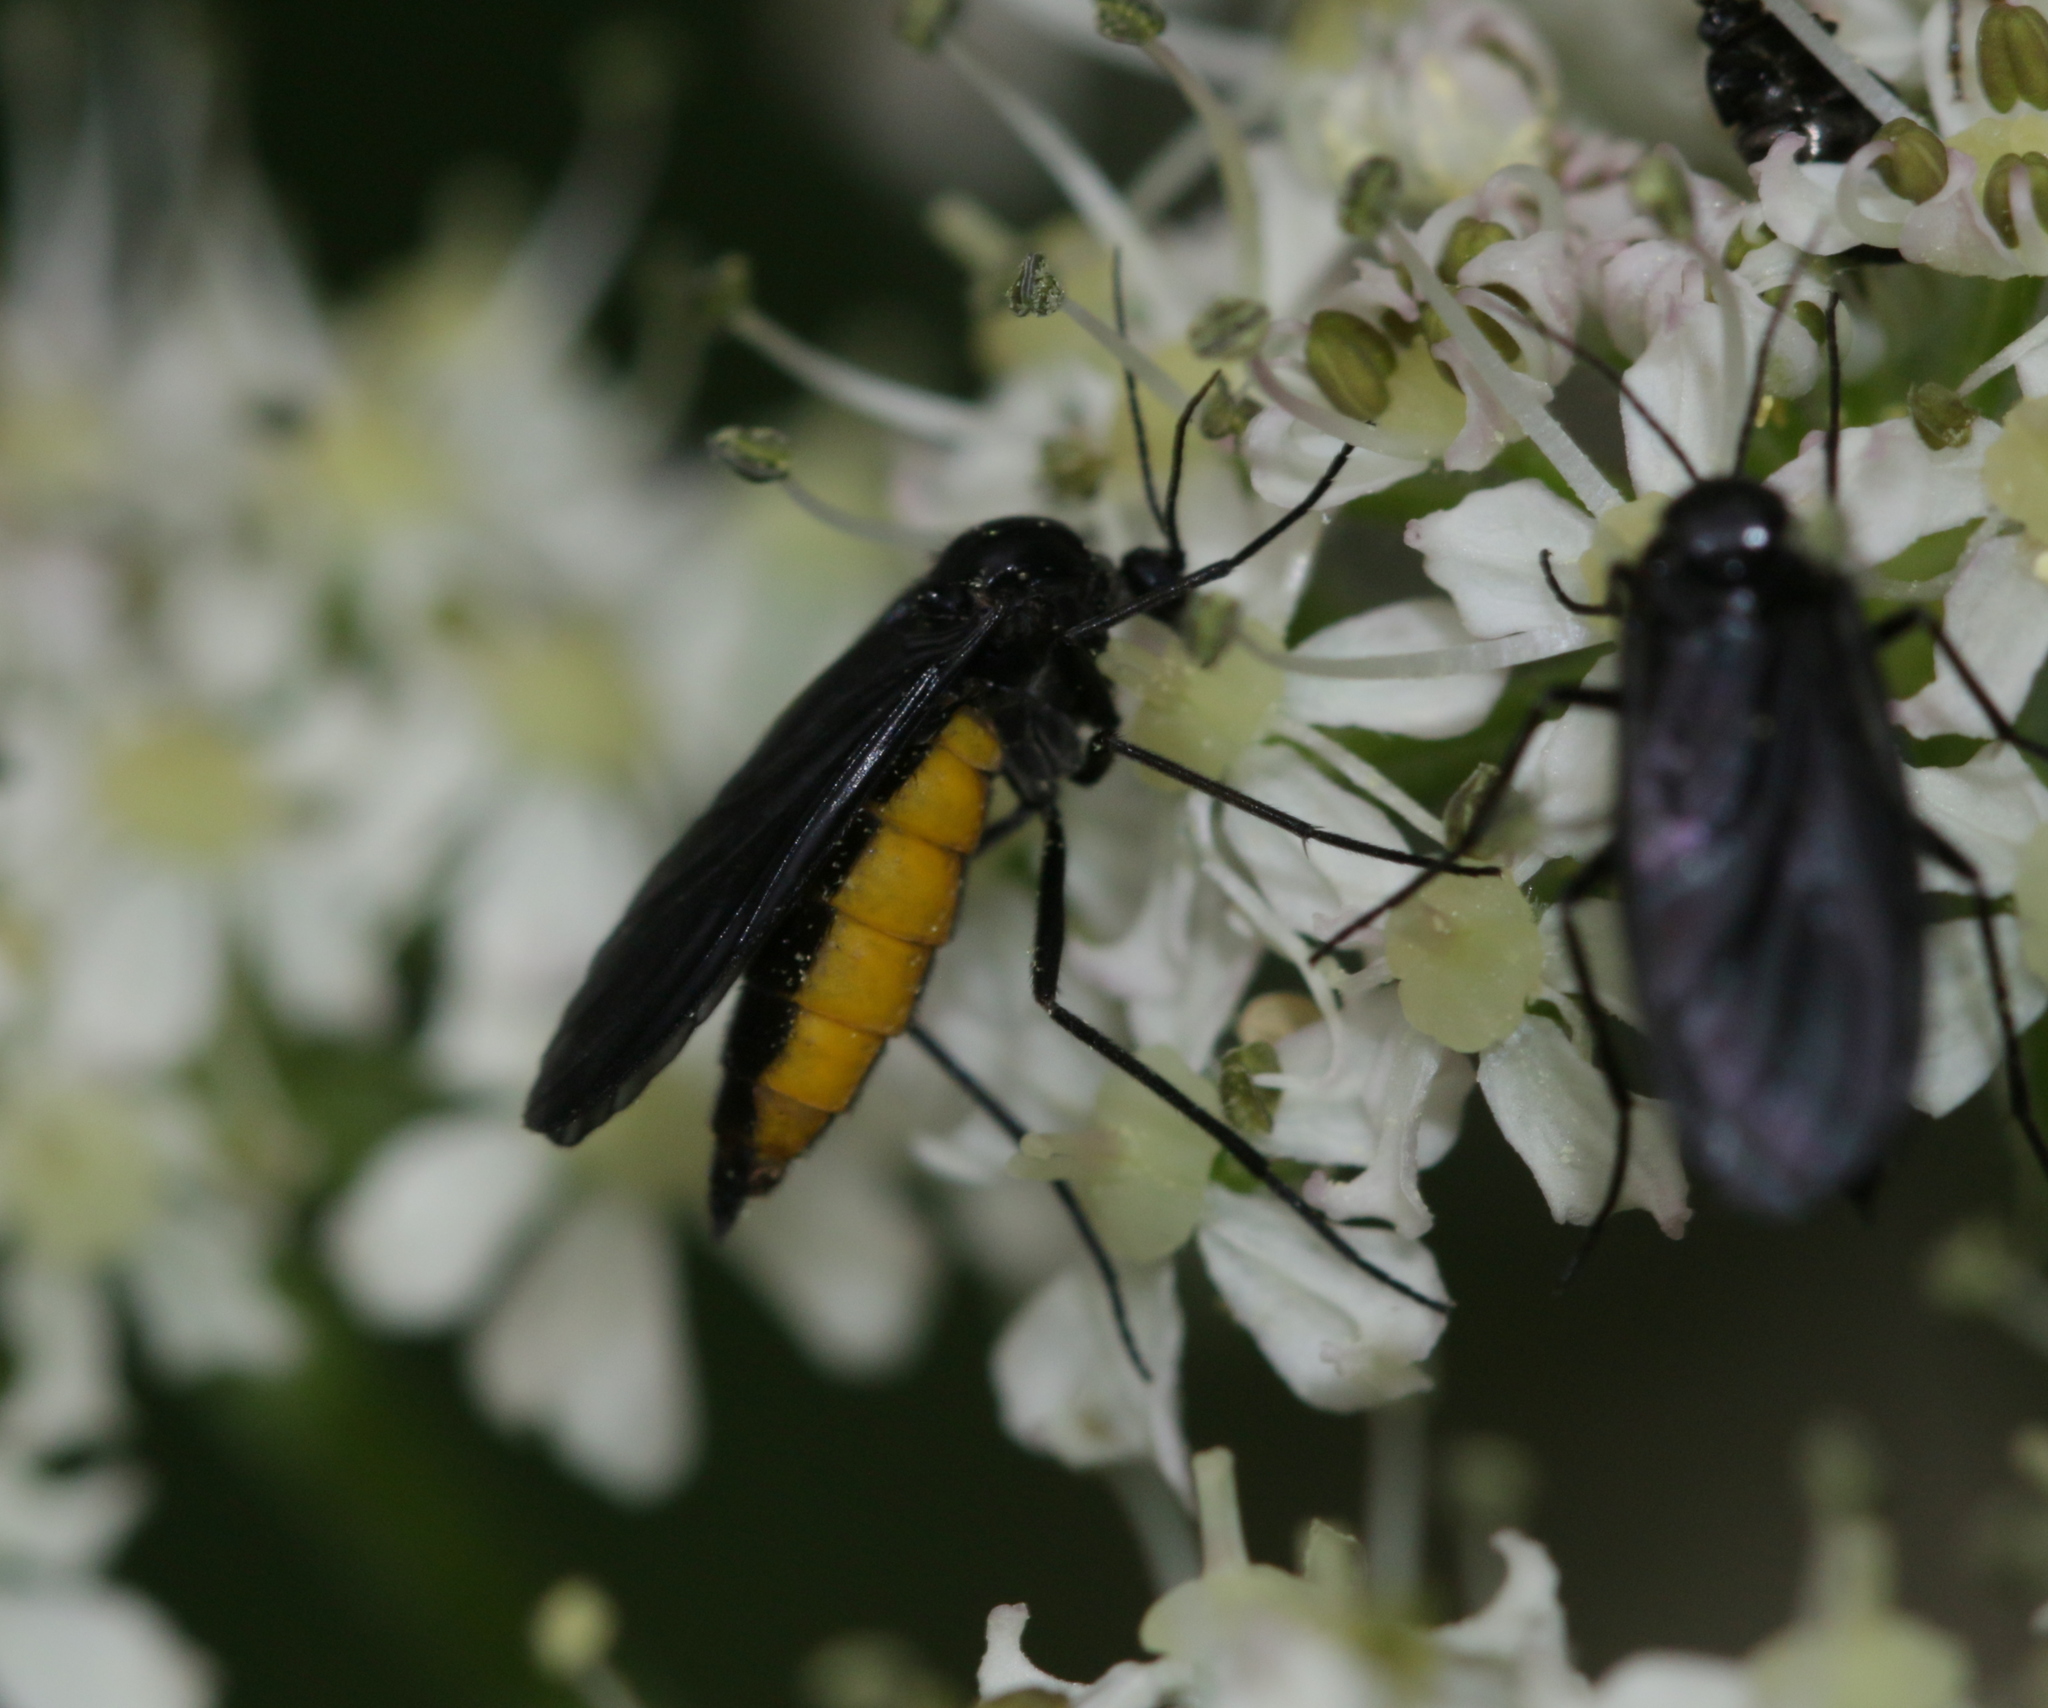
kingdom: Animalia
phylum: Arthropoda
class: Insecta
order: Diptera
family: Sciaridae
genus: Sciara
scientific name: Sciara hemerobioides
